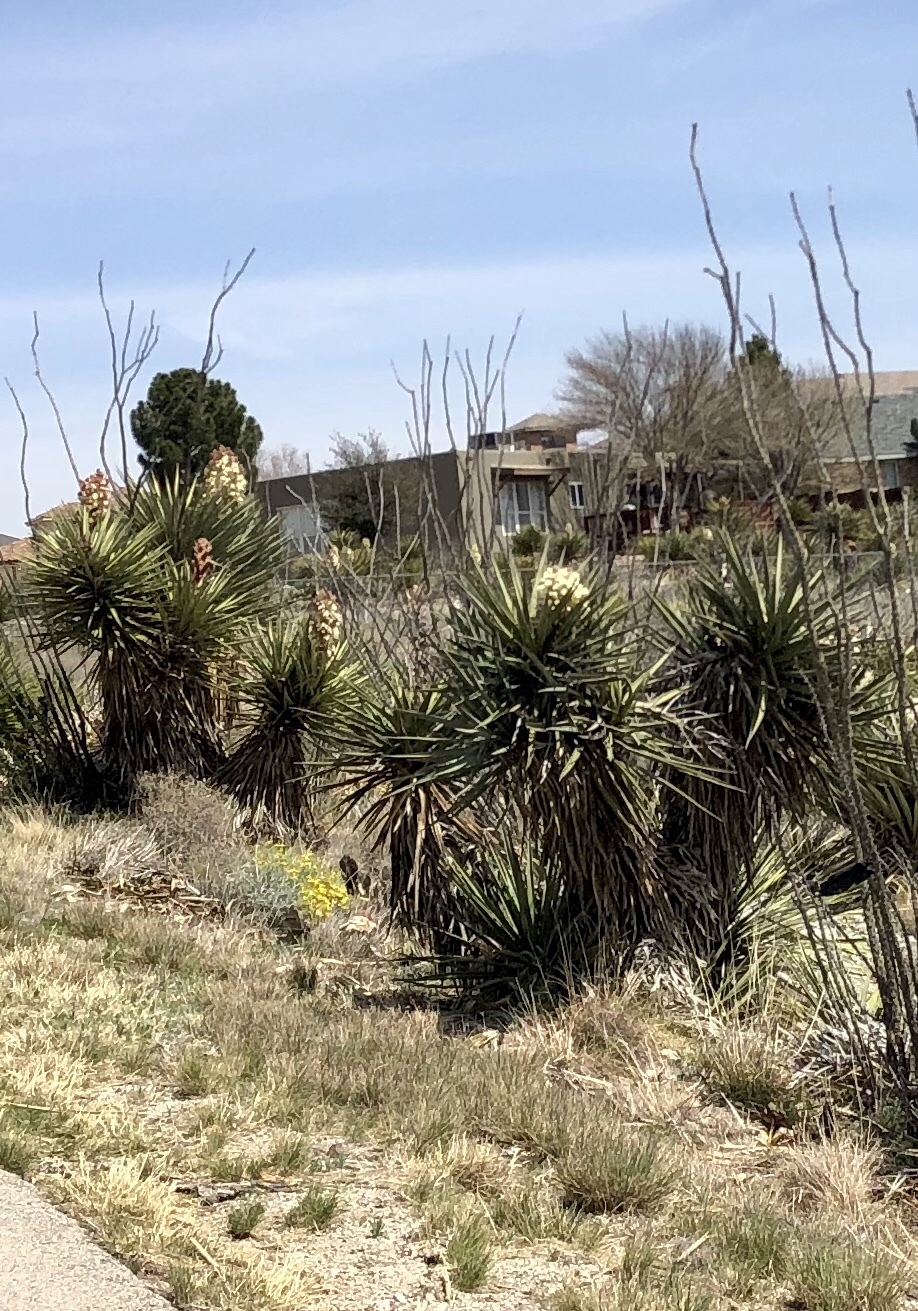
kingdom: Plantae
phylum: Tracheophyta
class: Liliopsida
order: Asparagales
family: Asparagaceae
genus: Yucca
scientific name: Yucca treculiana
